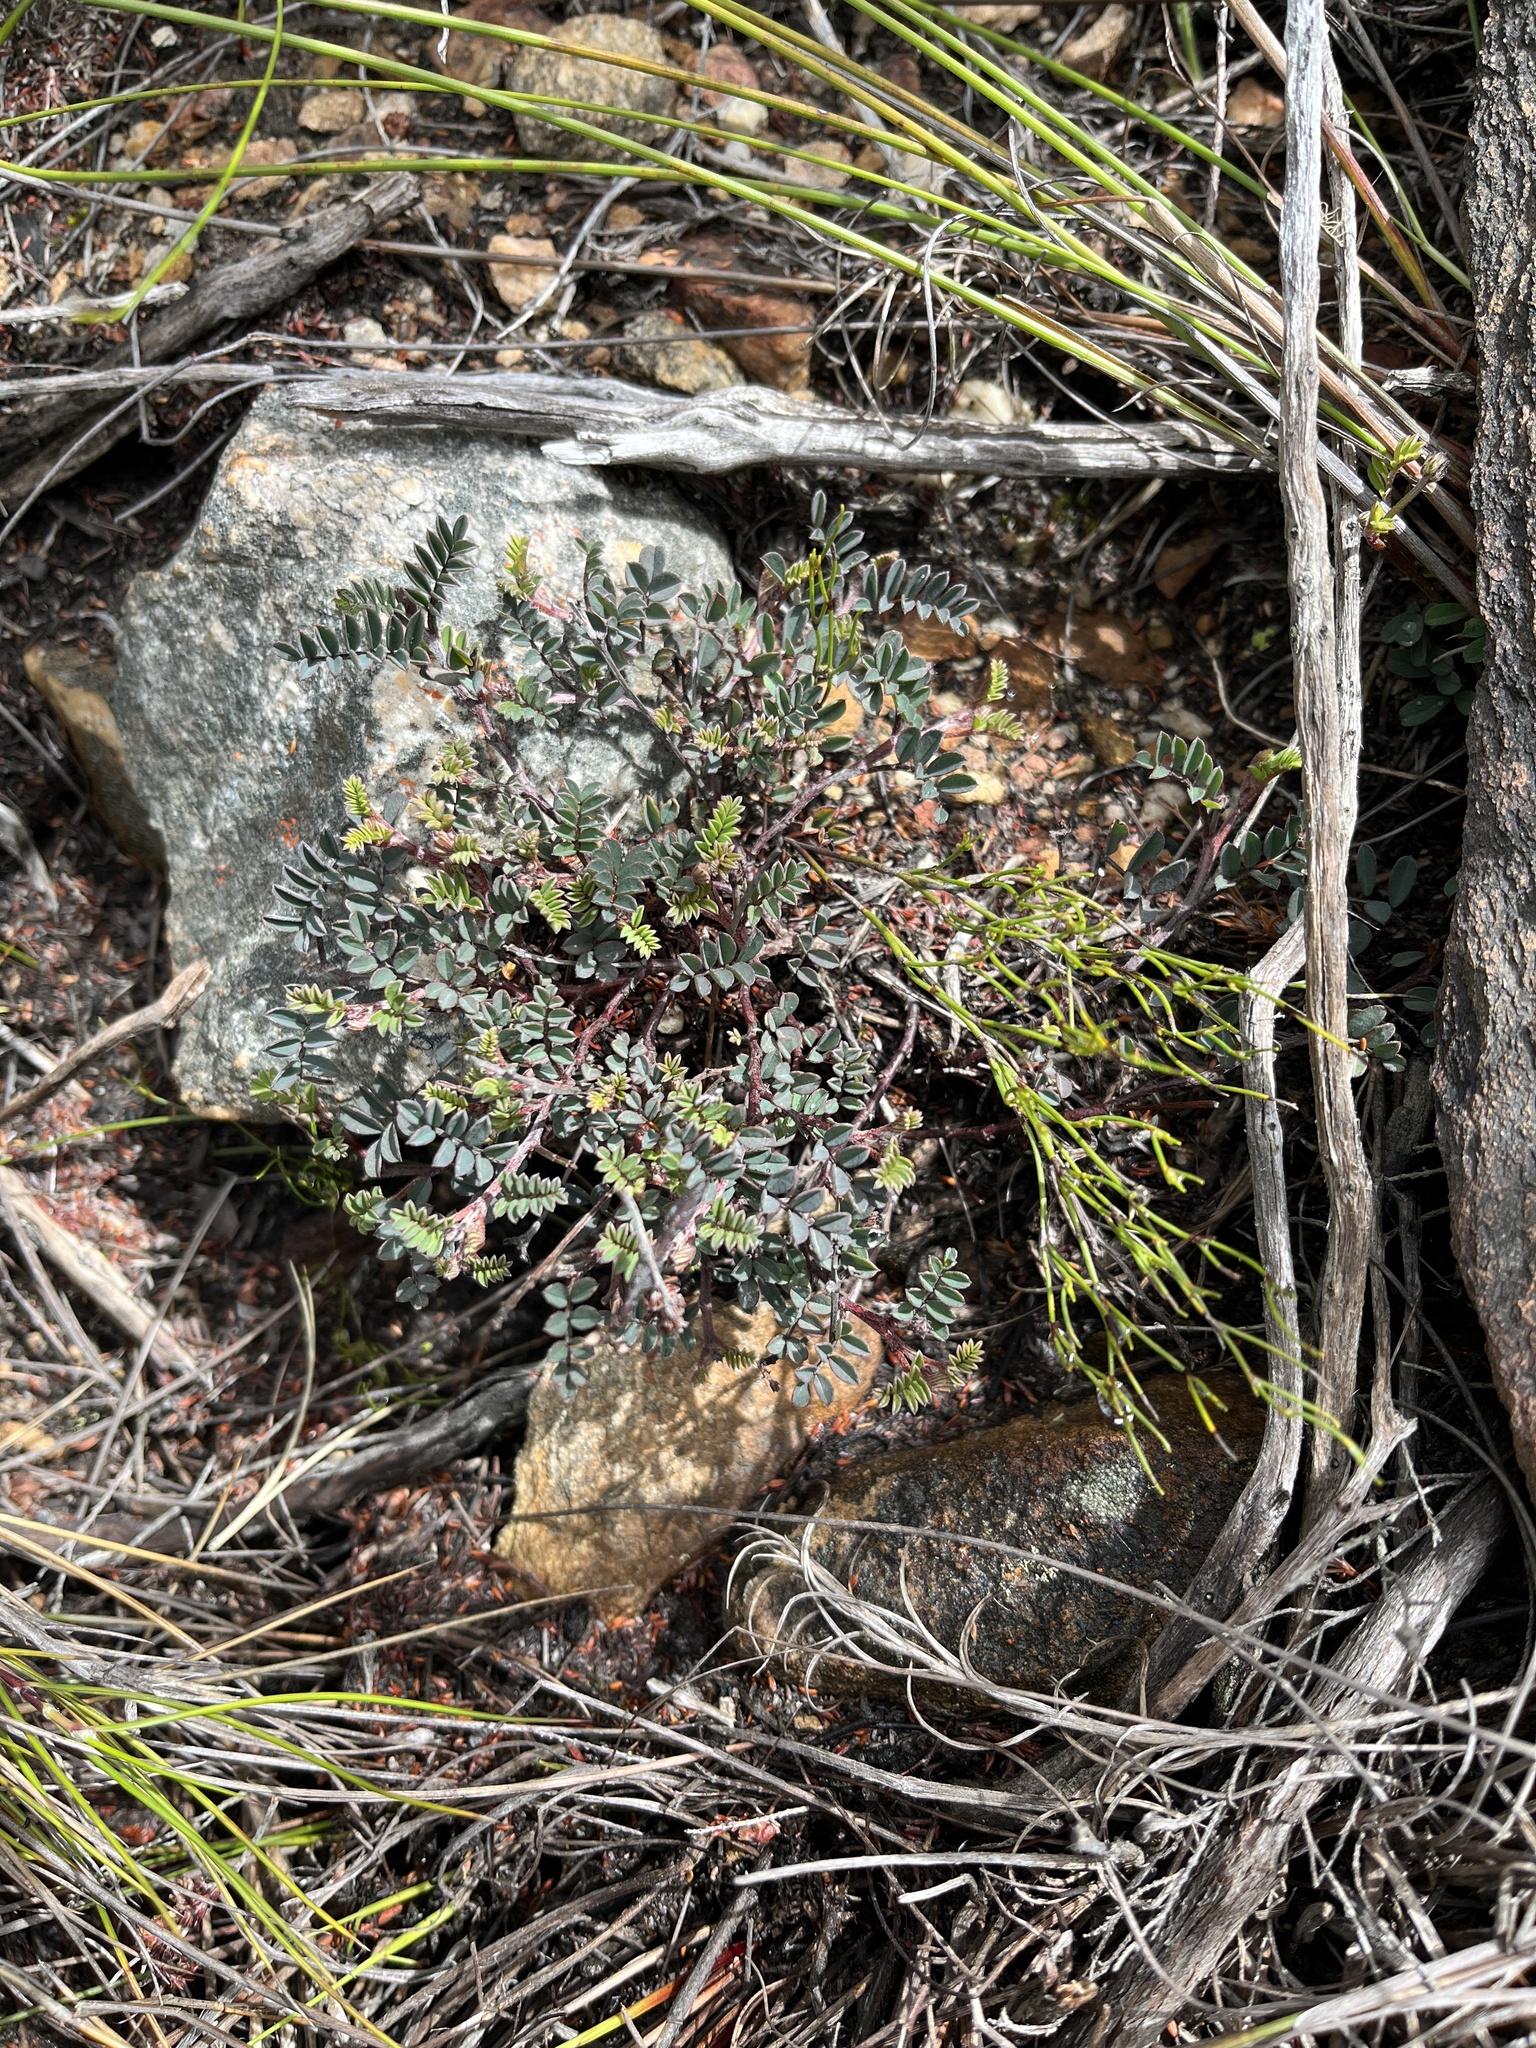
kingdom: Plantae
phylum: Tracheophyta
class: Magnoliopsida
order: Fabales
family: Fabaceae
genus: Indigofera
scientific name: Indigofera declinata
